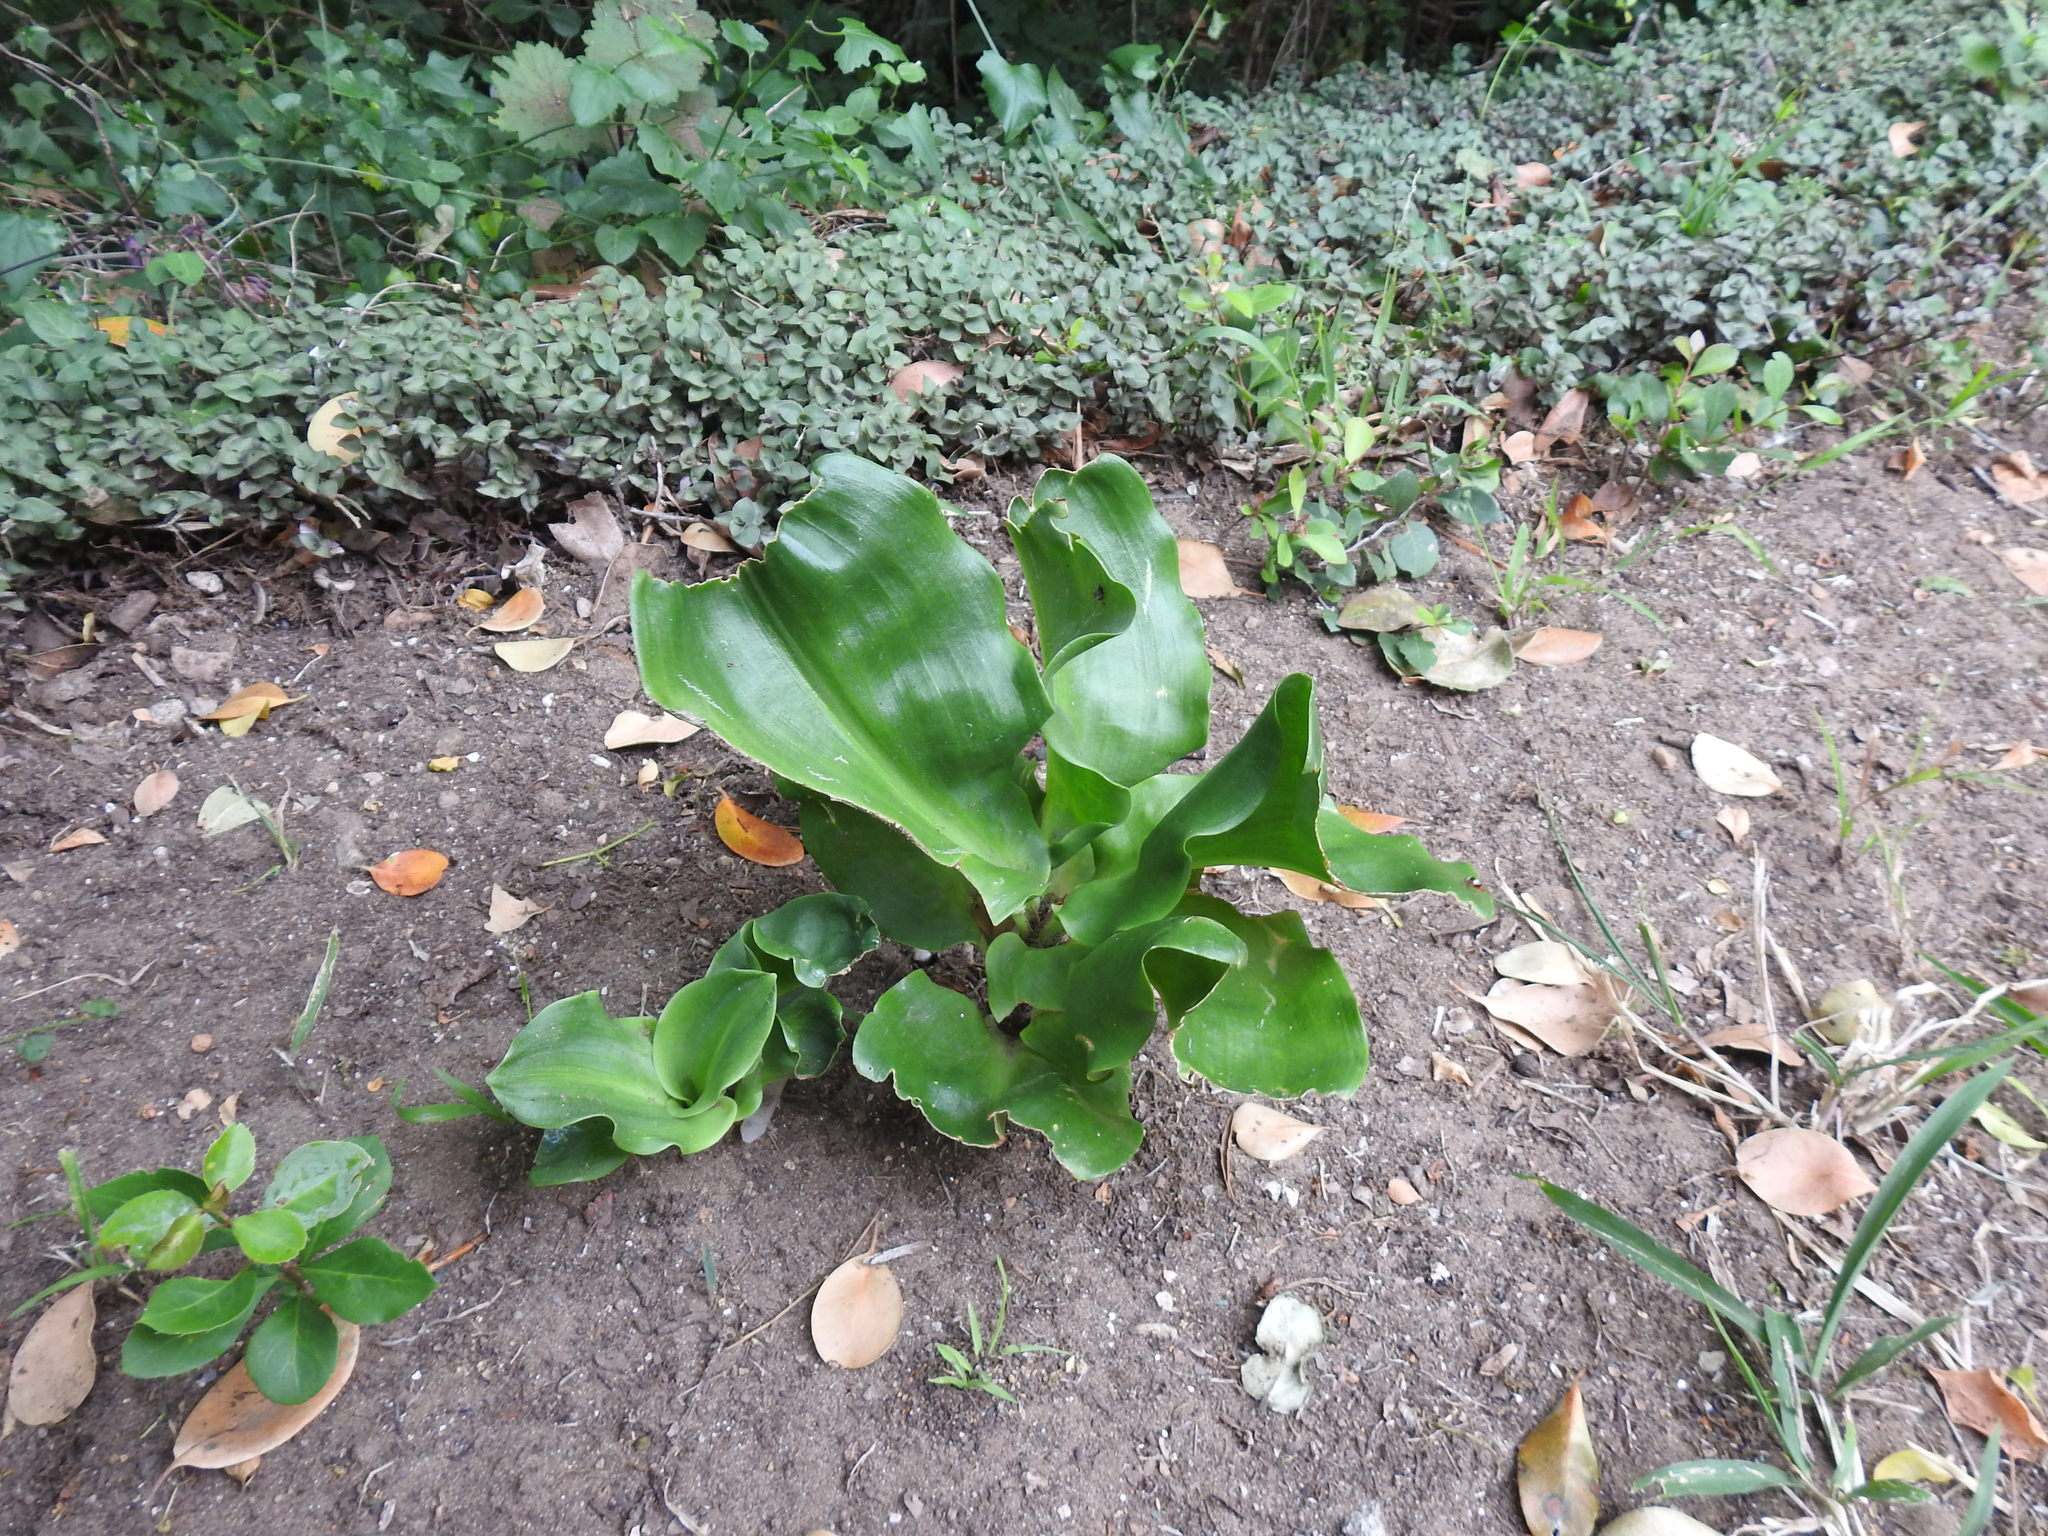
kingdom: Plantae
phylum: Tracheophyta
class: Liliopsida
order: Asparagales
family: Orchidaceae
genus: Bonatea
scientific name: Bonatea speciosa
